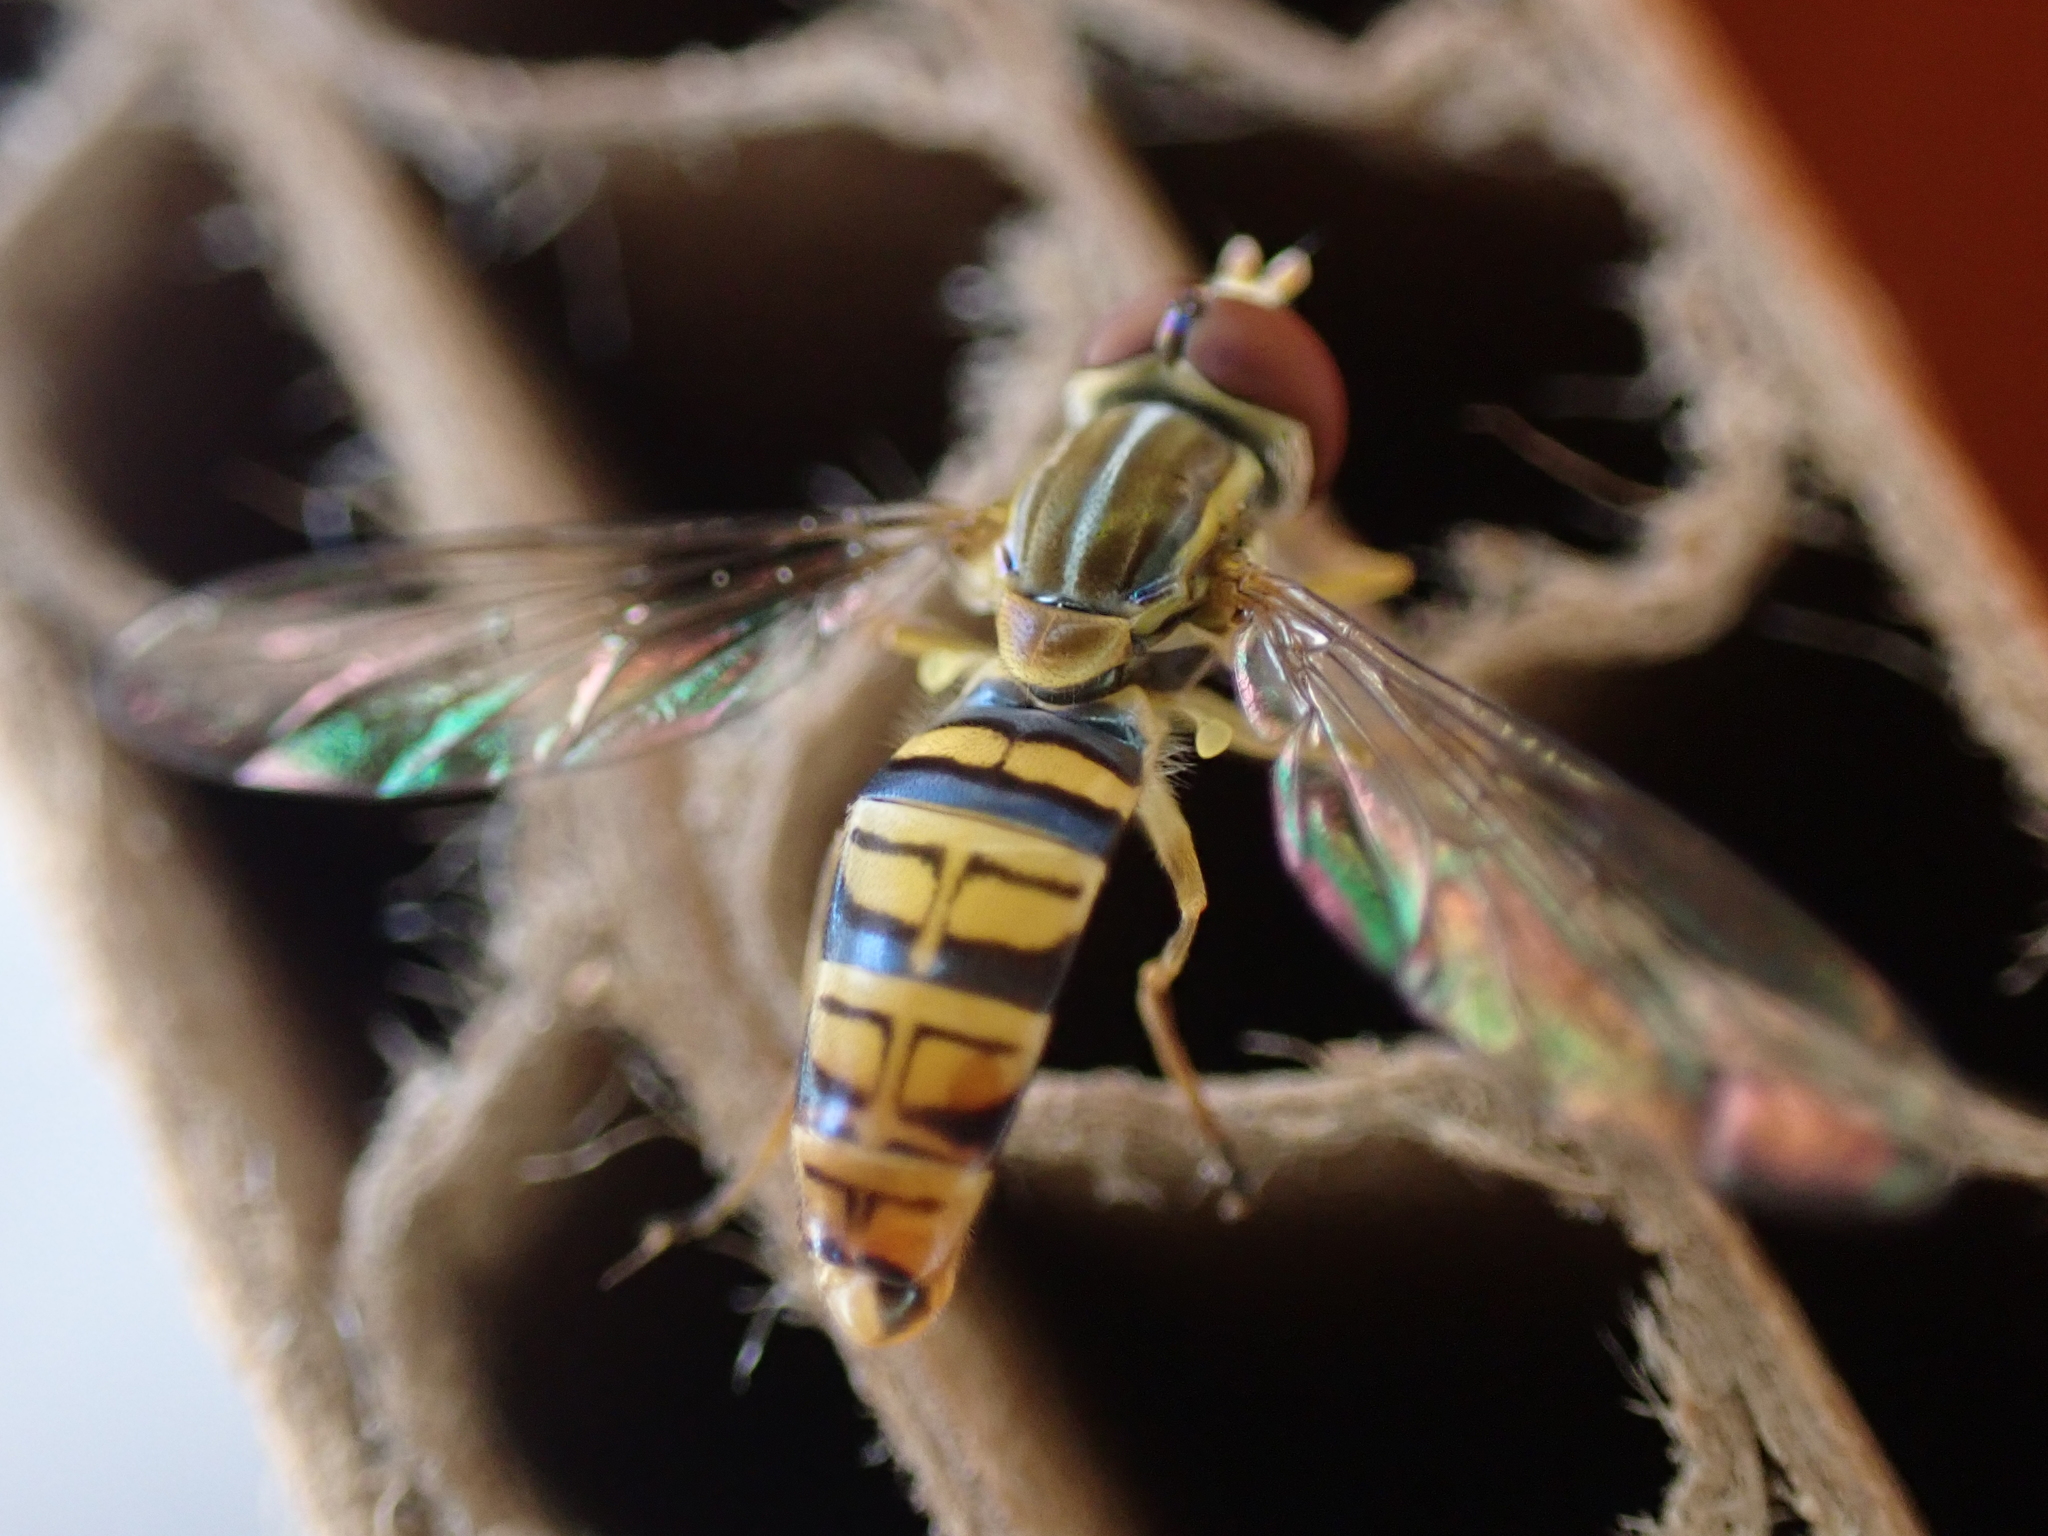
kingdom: Animalia
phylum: Arthropoda
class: Insecta
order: Diptera
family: Syrphidae
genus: Toxomerus
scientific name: Toxomerus politus
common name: Maize calligrapher
